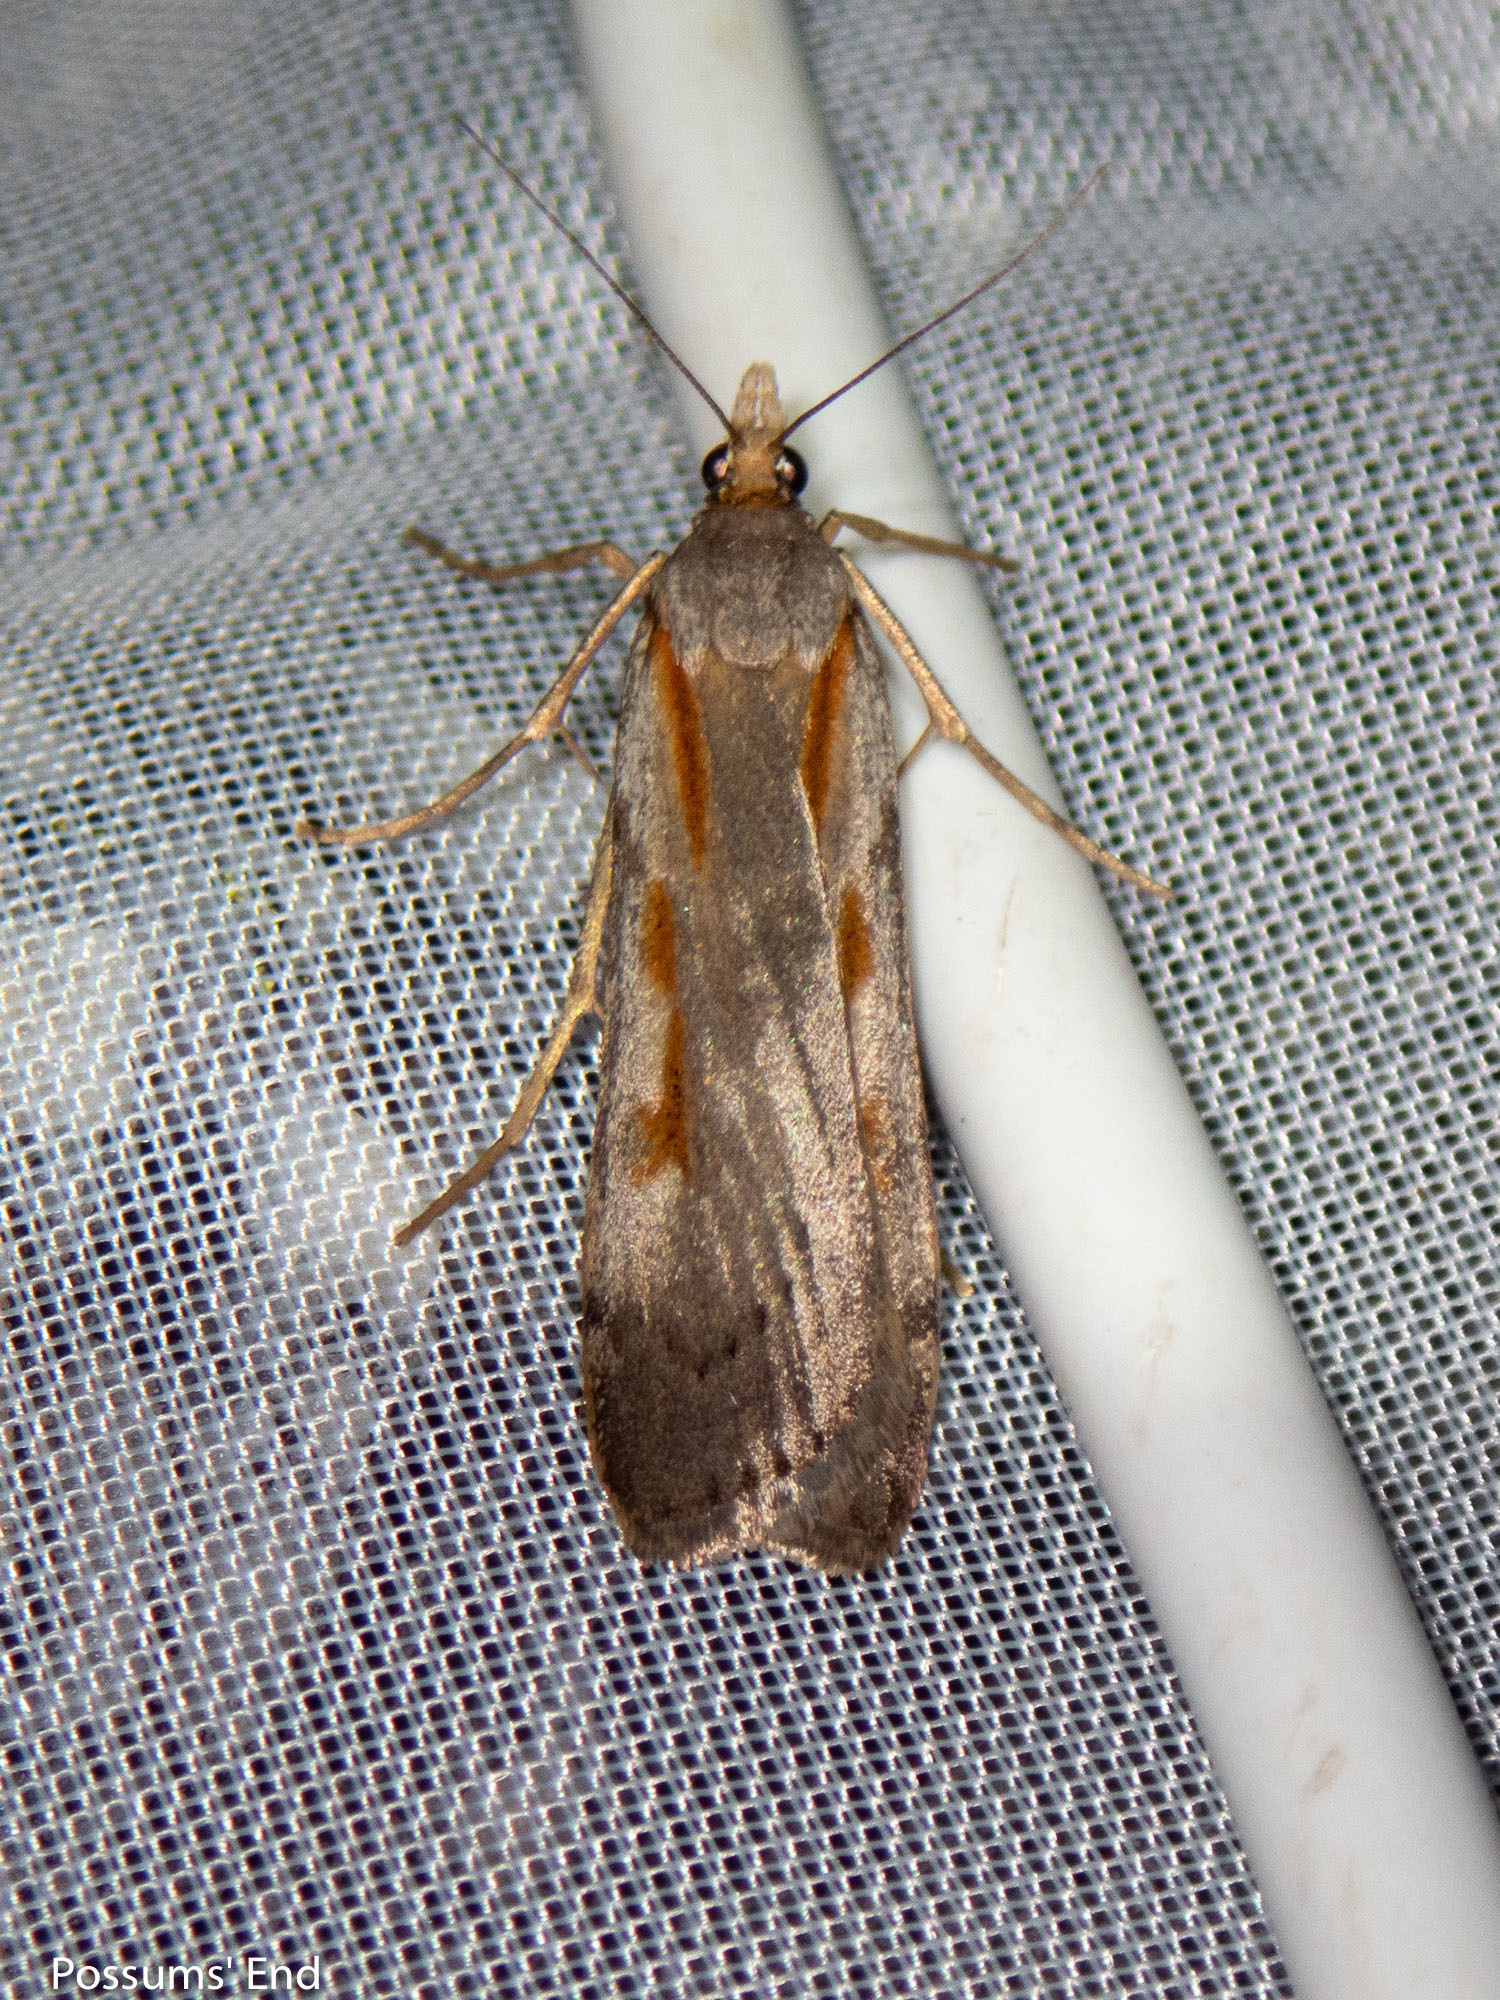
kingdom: Animalia
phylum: Arthropoda
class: Insecta
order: Lepidoptera
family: Crambidae
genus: Scoparia
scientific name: Scoparia scripta
